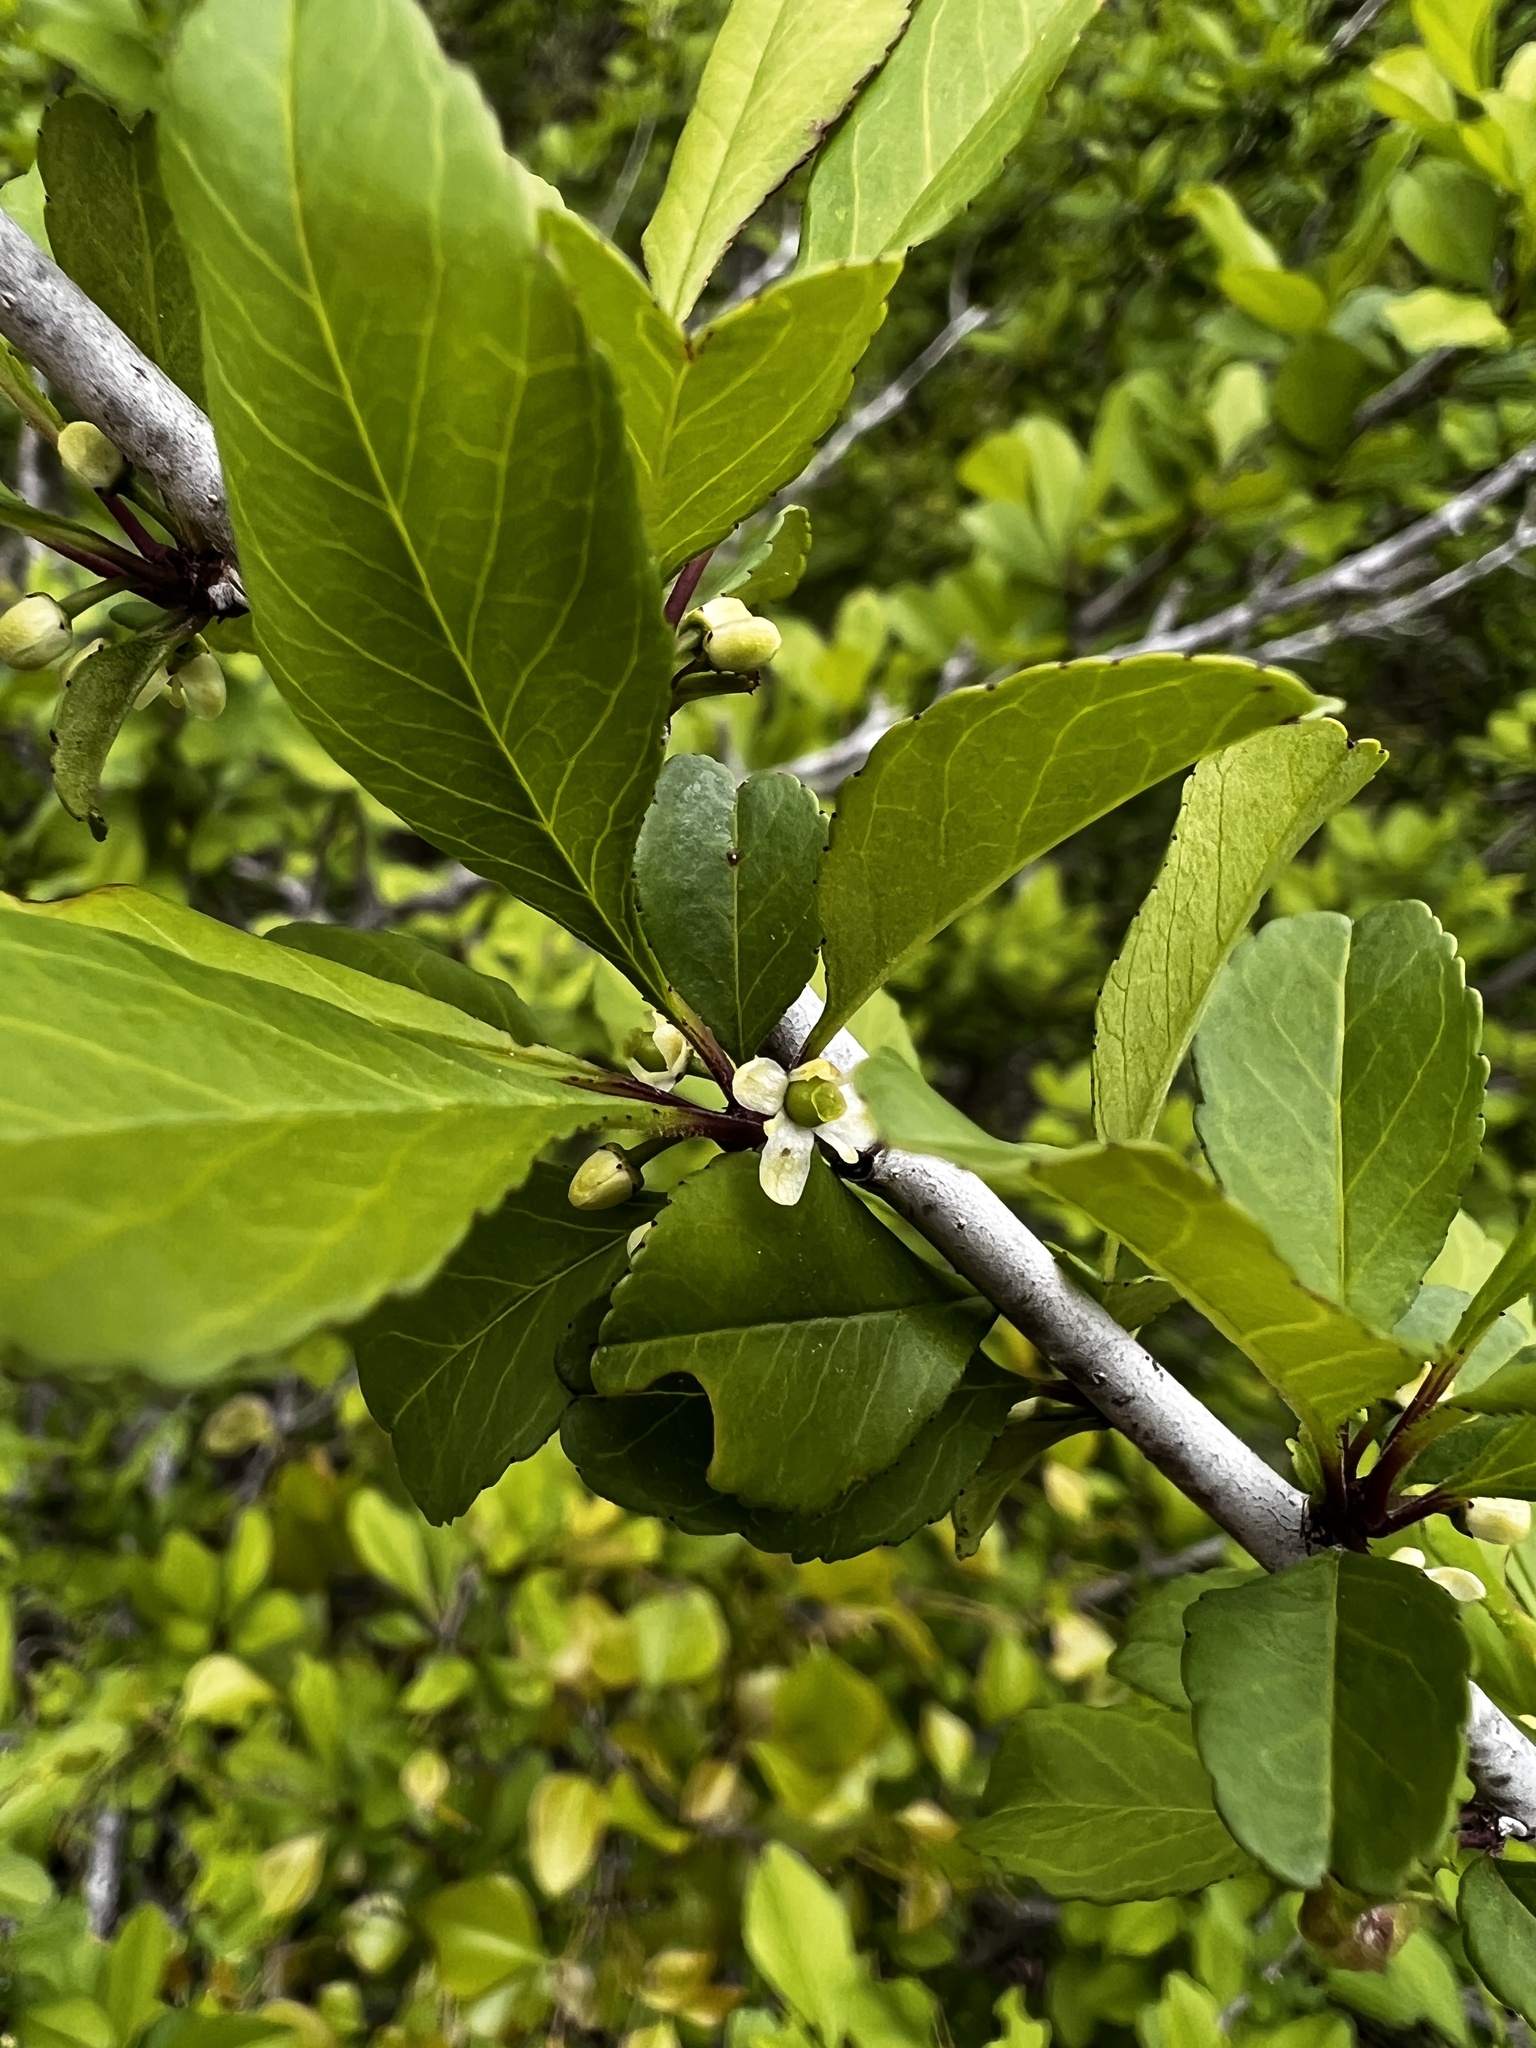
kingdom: Plantae
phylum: Tracheophyta
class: Magnoliopsida
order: Aquifoliales
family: Aquifoliaceae
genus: Ilex
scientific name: Ilex decidua
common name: Possum-haw
